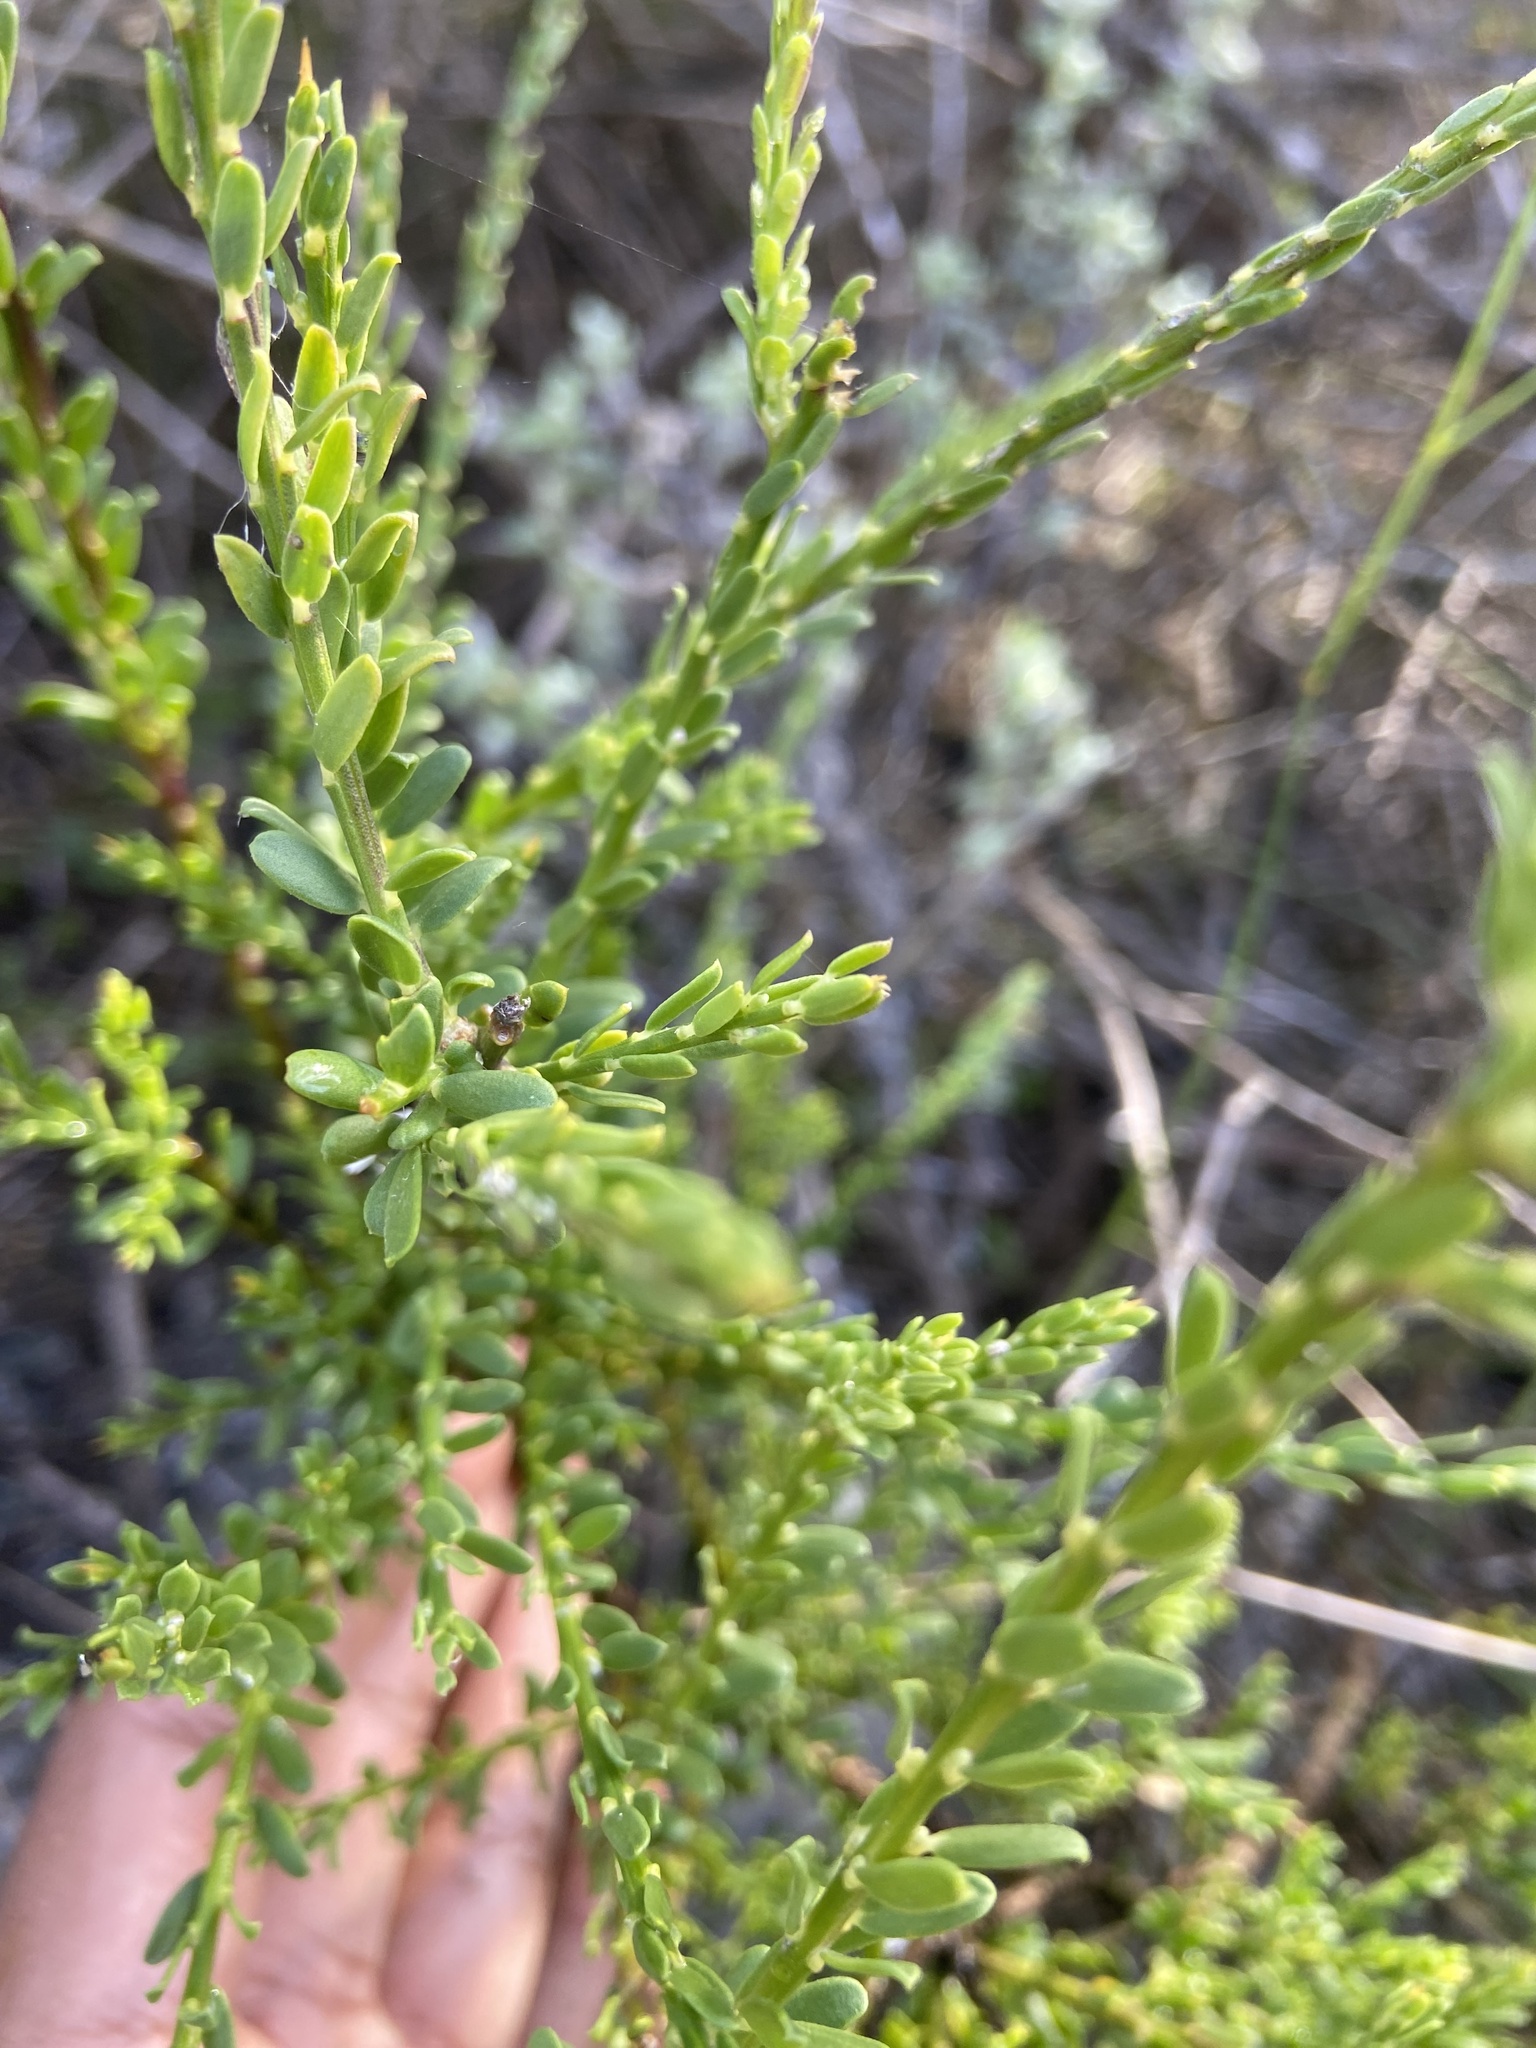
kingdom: Plantae
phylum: Tracheophyta
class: Magnoliopsida
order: Fabales
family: Polygalaceae
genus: Muraltia
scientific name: Muraltia spinosa
